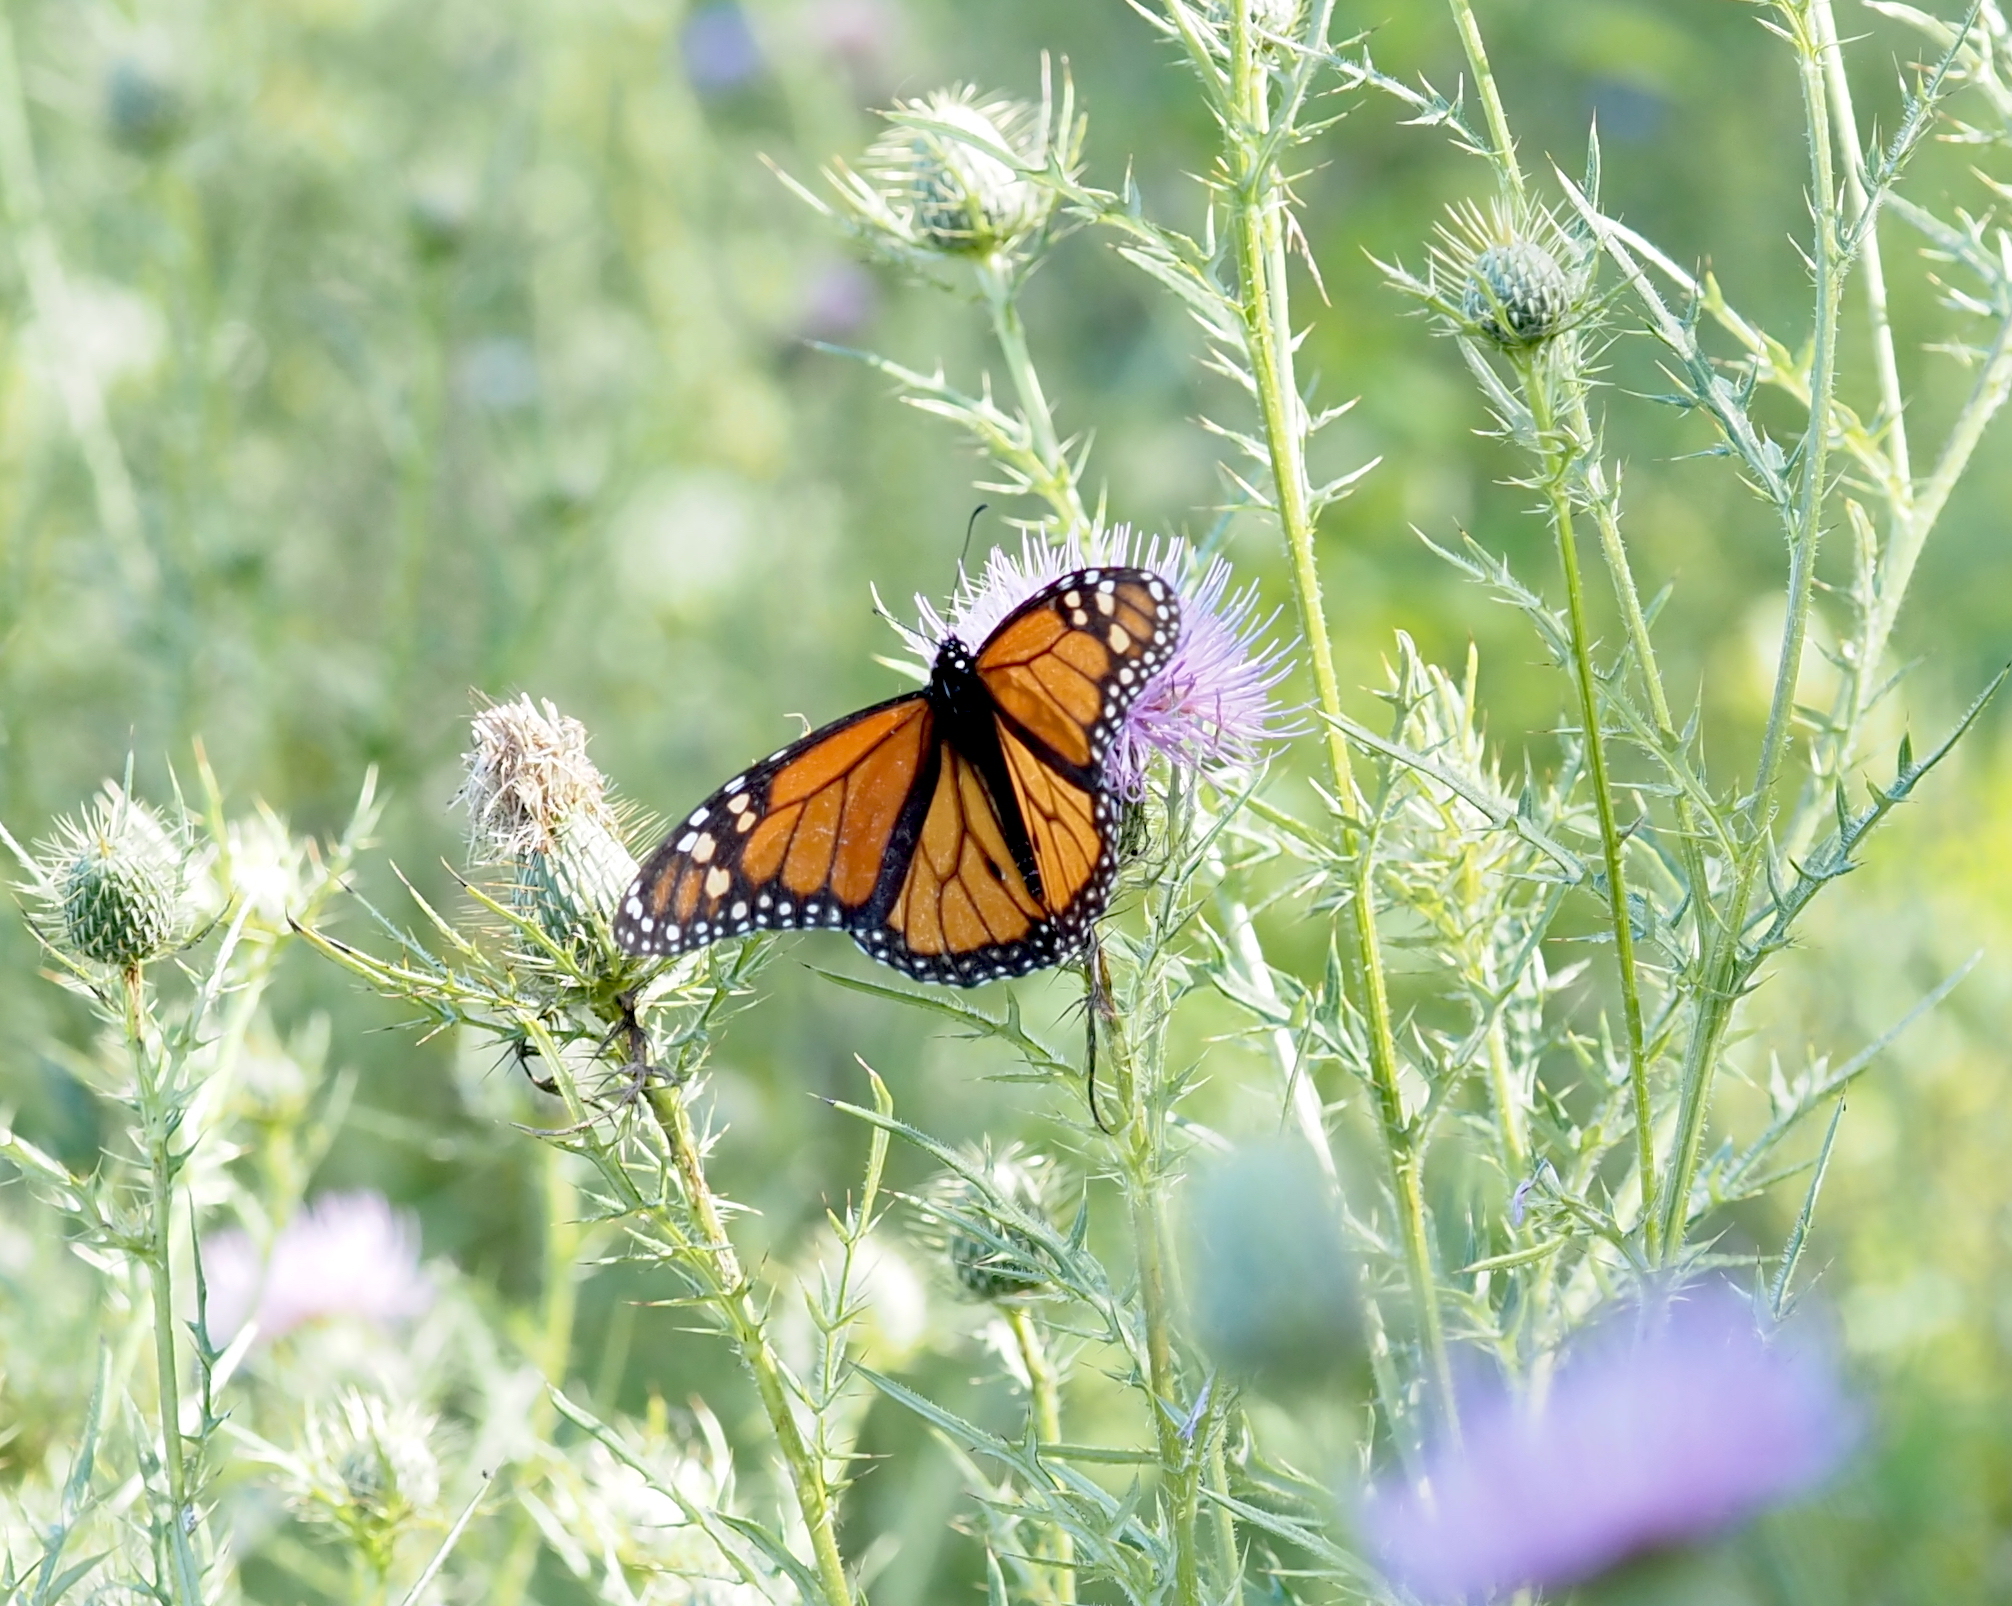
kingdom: Animalia
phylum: Arthropoda
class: Insecta
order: Lepidoptera
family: Nymphalidae
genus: Danaus
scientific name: Danaus plexippus
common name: Monarch
